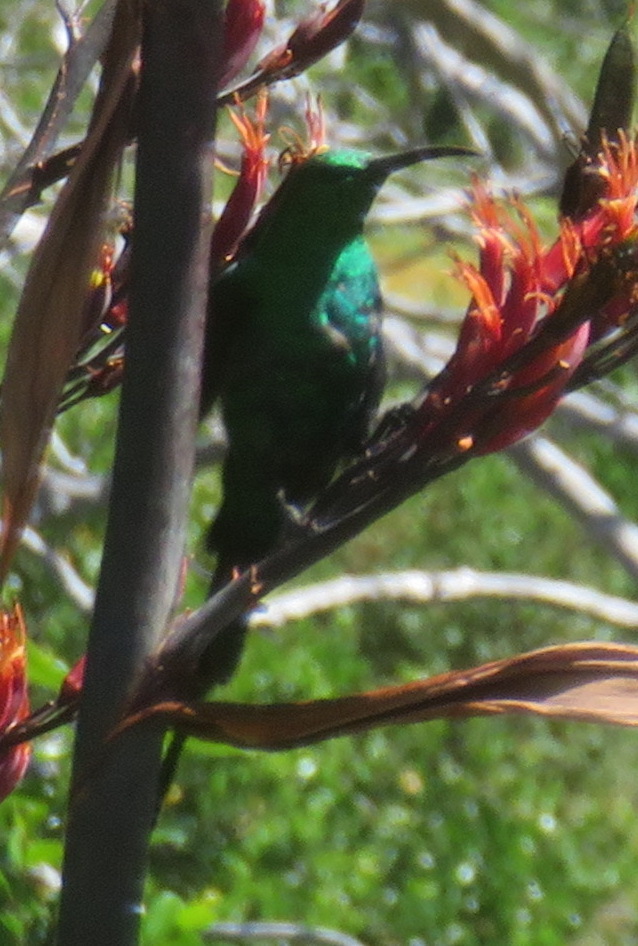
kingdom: Animalia
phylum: Chordata
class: Aves
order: Passeriformes
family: Nectariniidae
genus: Nectarinia
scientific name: Nectarinia famosa
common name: Malachite sunbird
